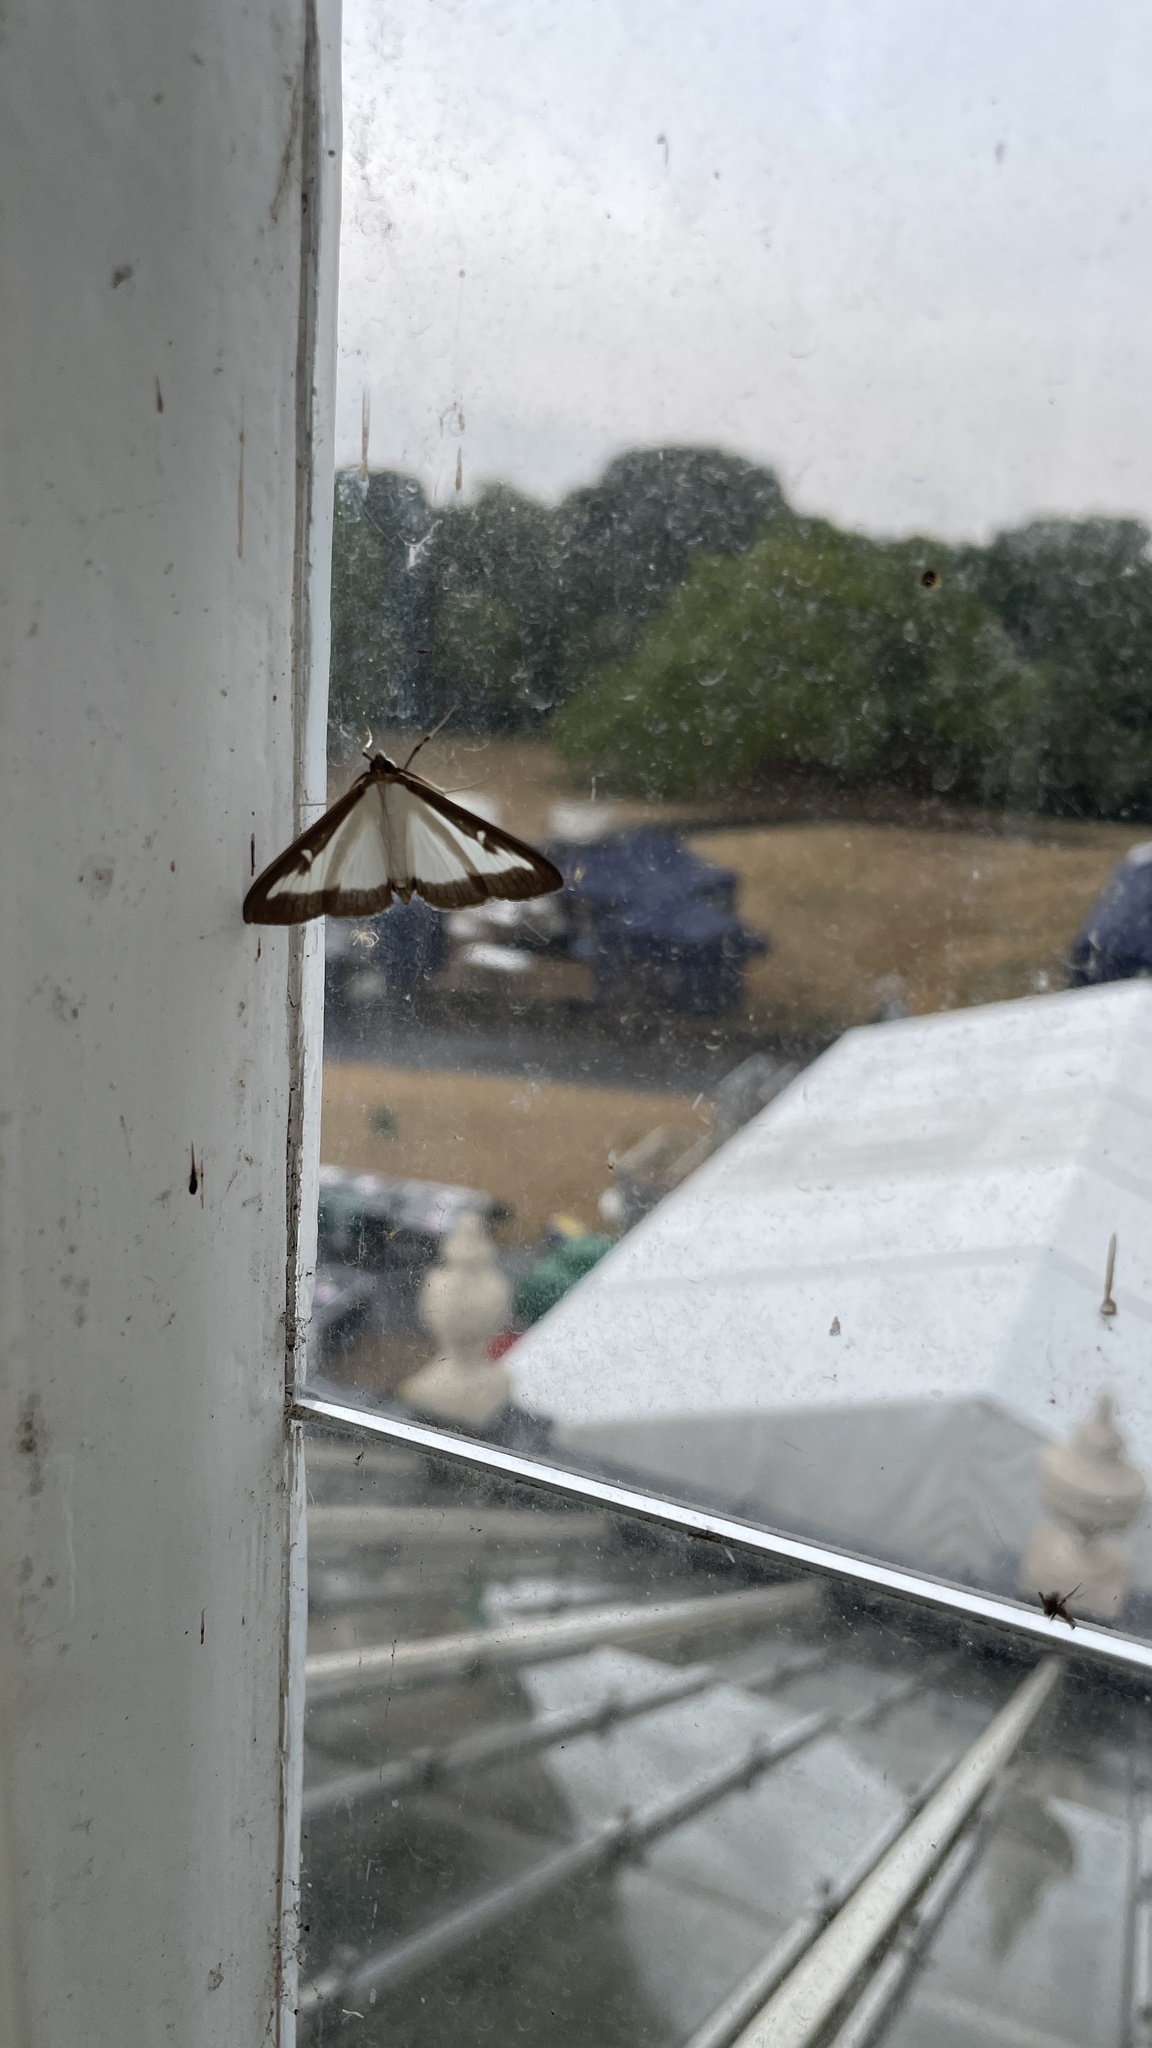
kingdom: Animalia
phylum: Arthropoda
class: Insecta
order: Lepidoptera
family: Crambidae
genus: Cydalima
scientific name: Cydalima perspectalis
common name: Box tree moth
